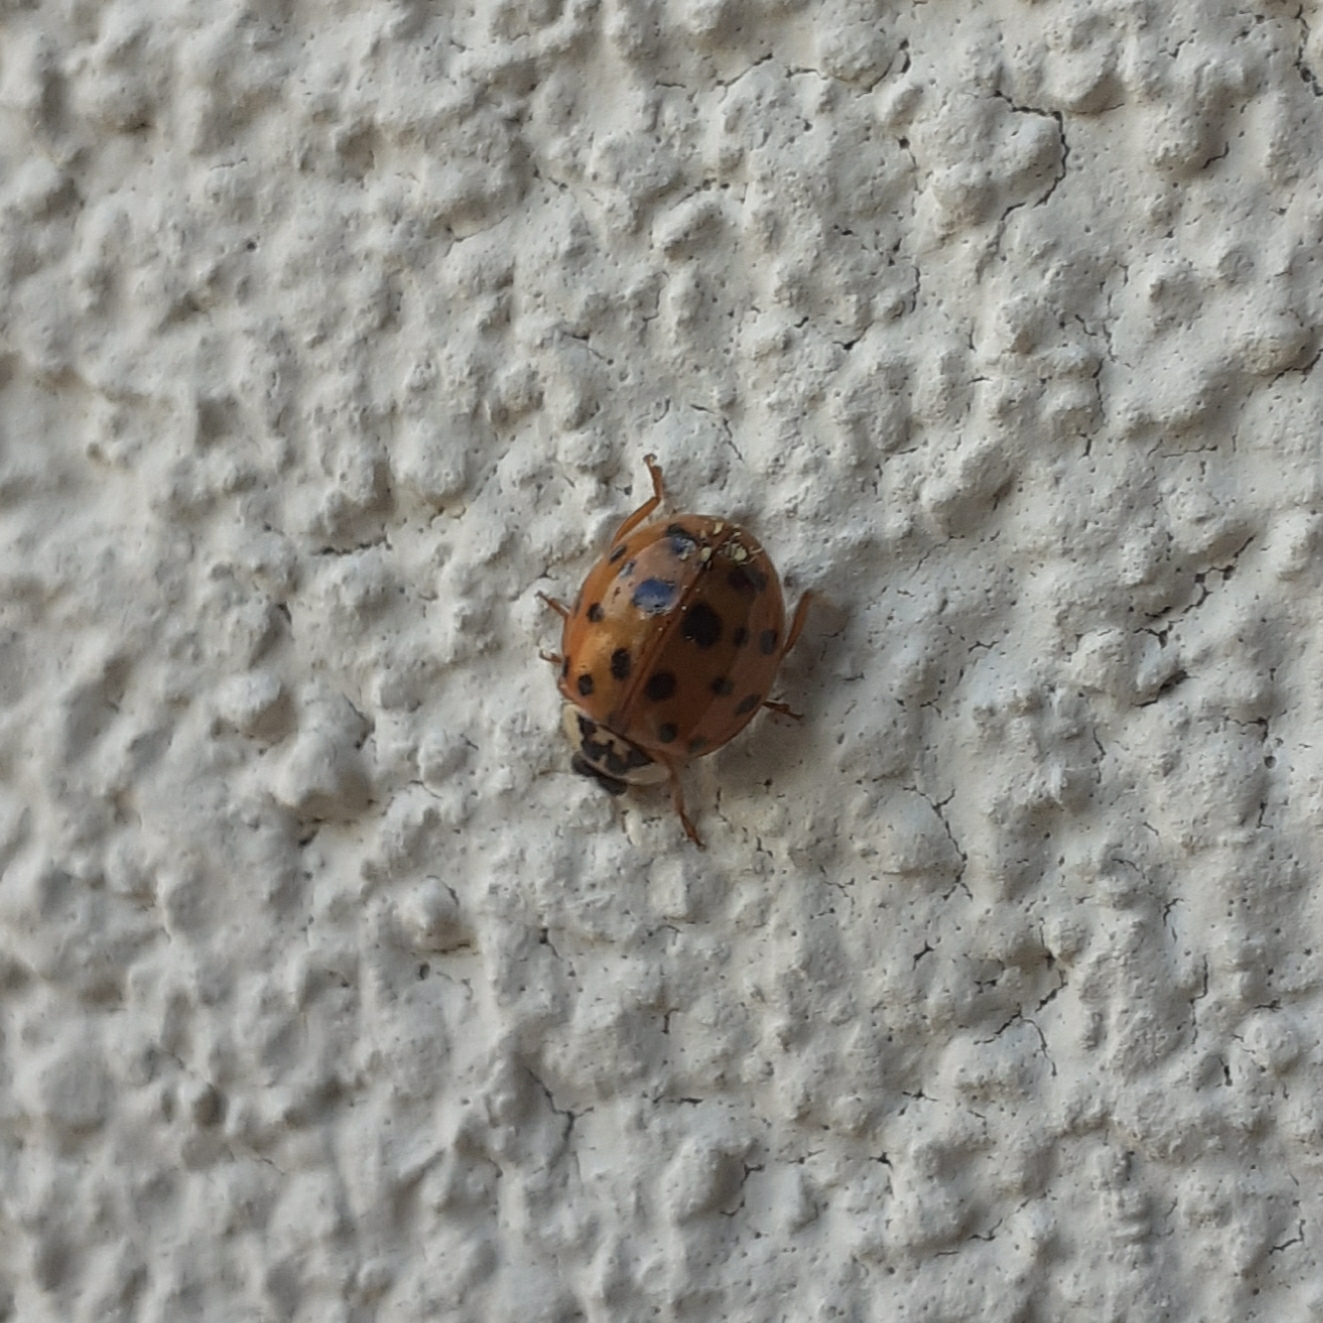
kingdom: Animalia
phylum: Arthropoda
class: Insecta
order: Coleoptera
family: Coccinellidae
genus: Harmonia
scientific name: Harmonia axyridis
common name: Harlequin ladybird
